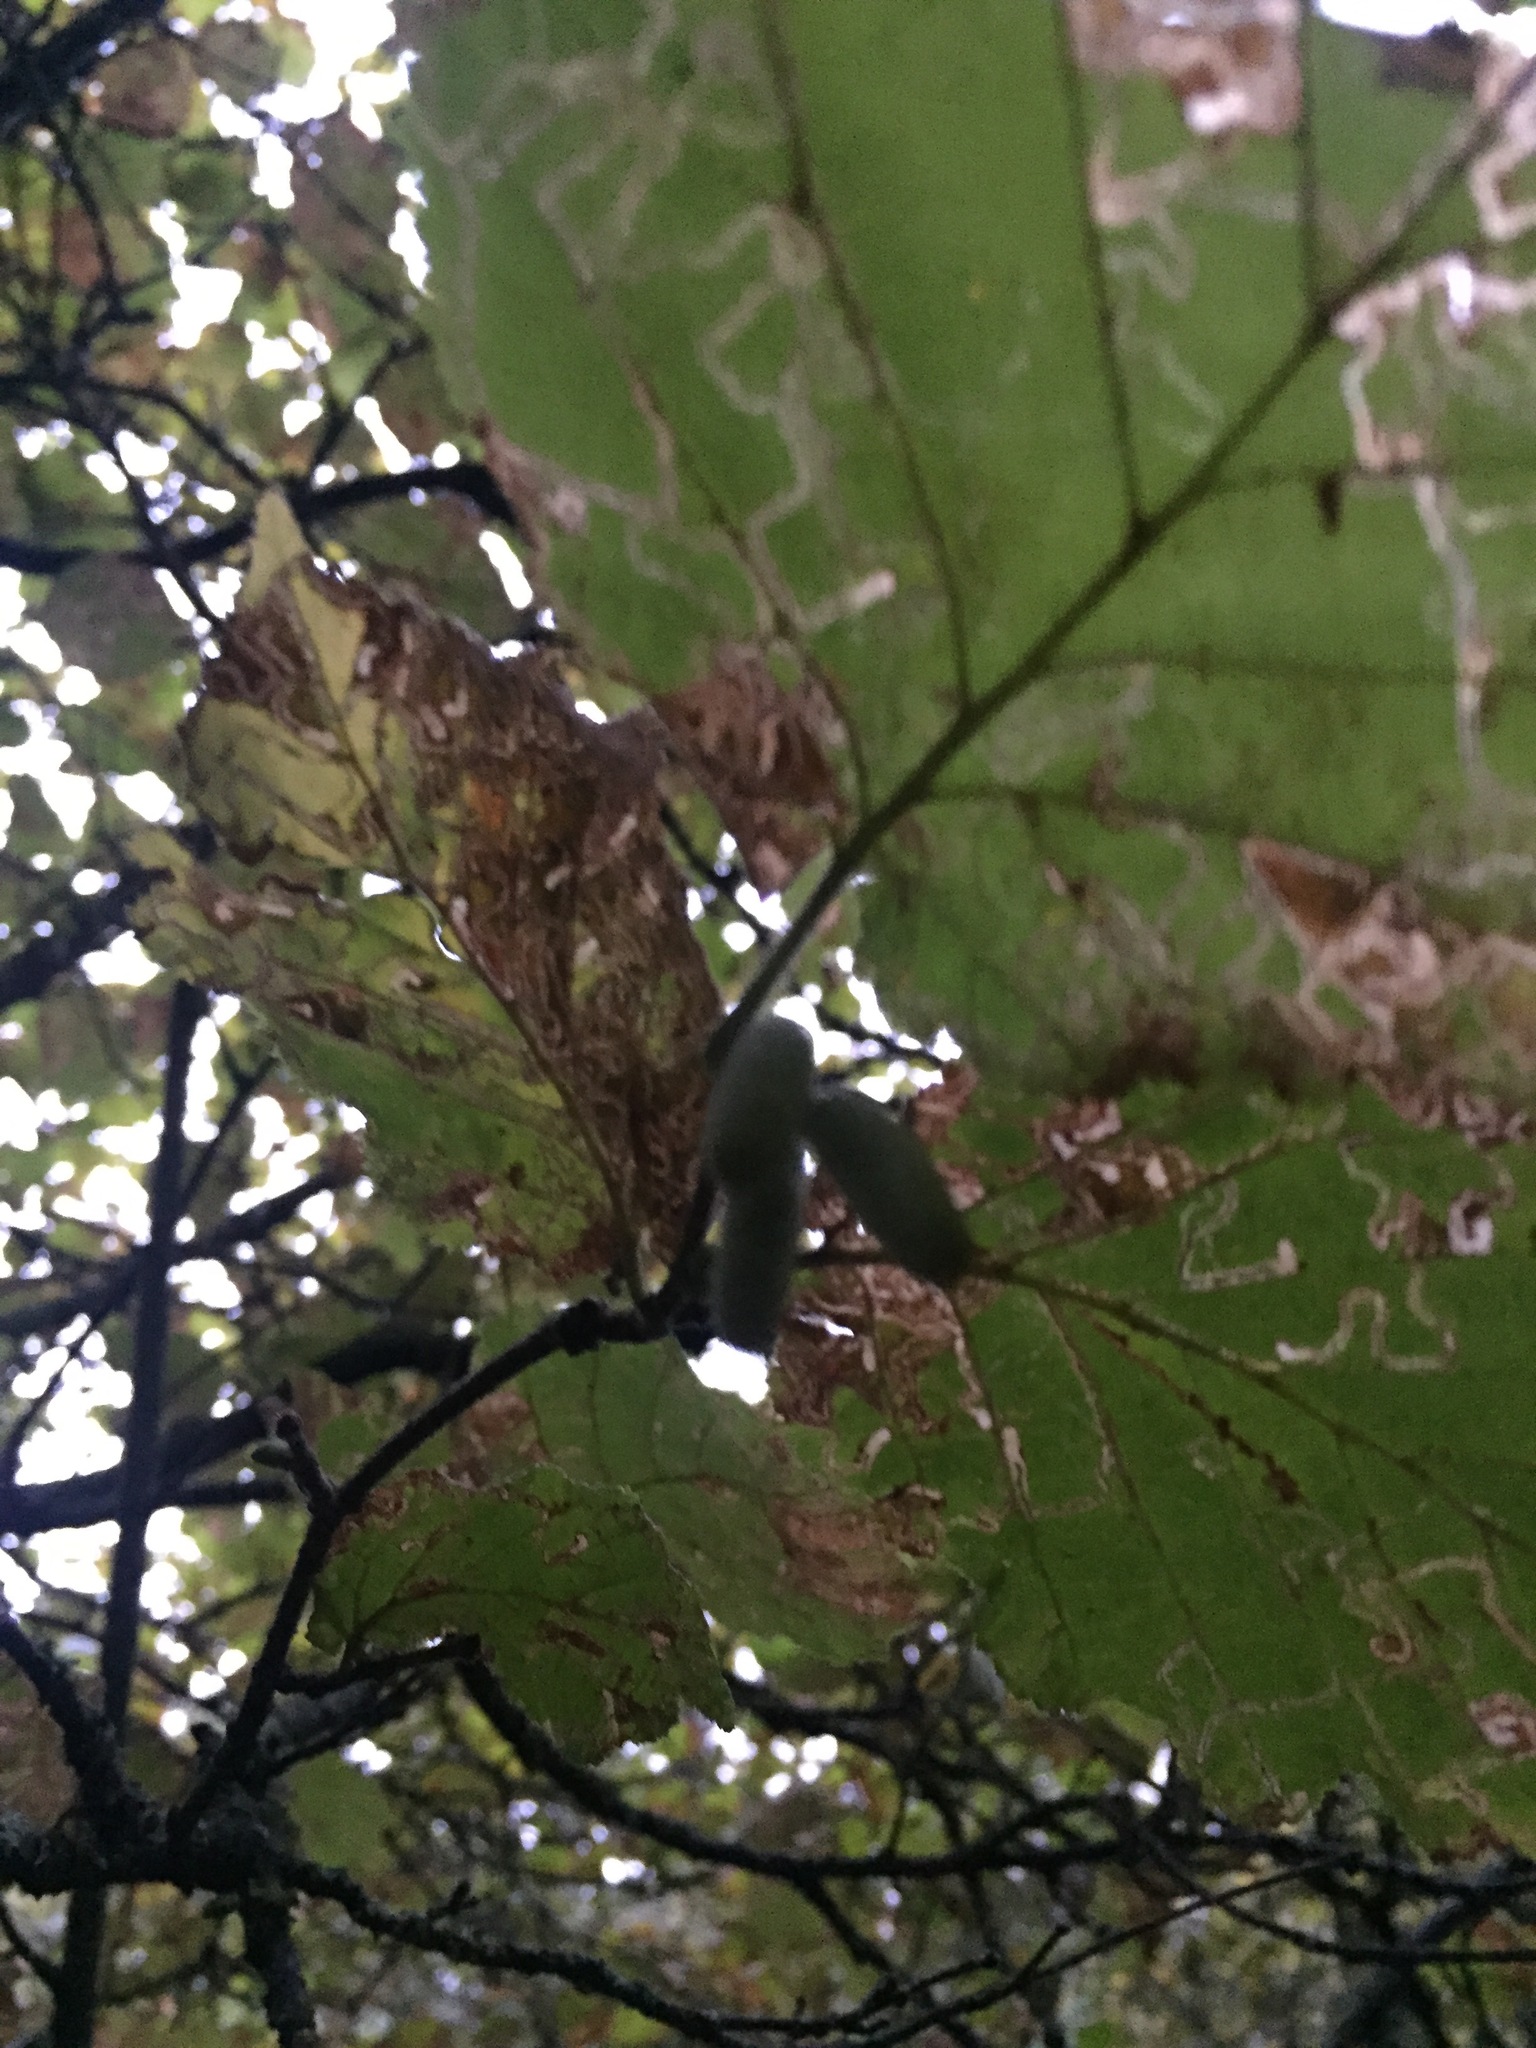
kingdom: Animalia
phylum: Chordata
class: Aves
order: Passeriformes
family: Rhipiduridae
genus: Rhipidura
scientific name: Rhipidura fuliginosa
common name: New zealand fantail
